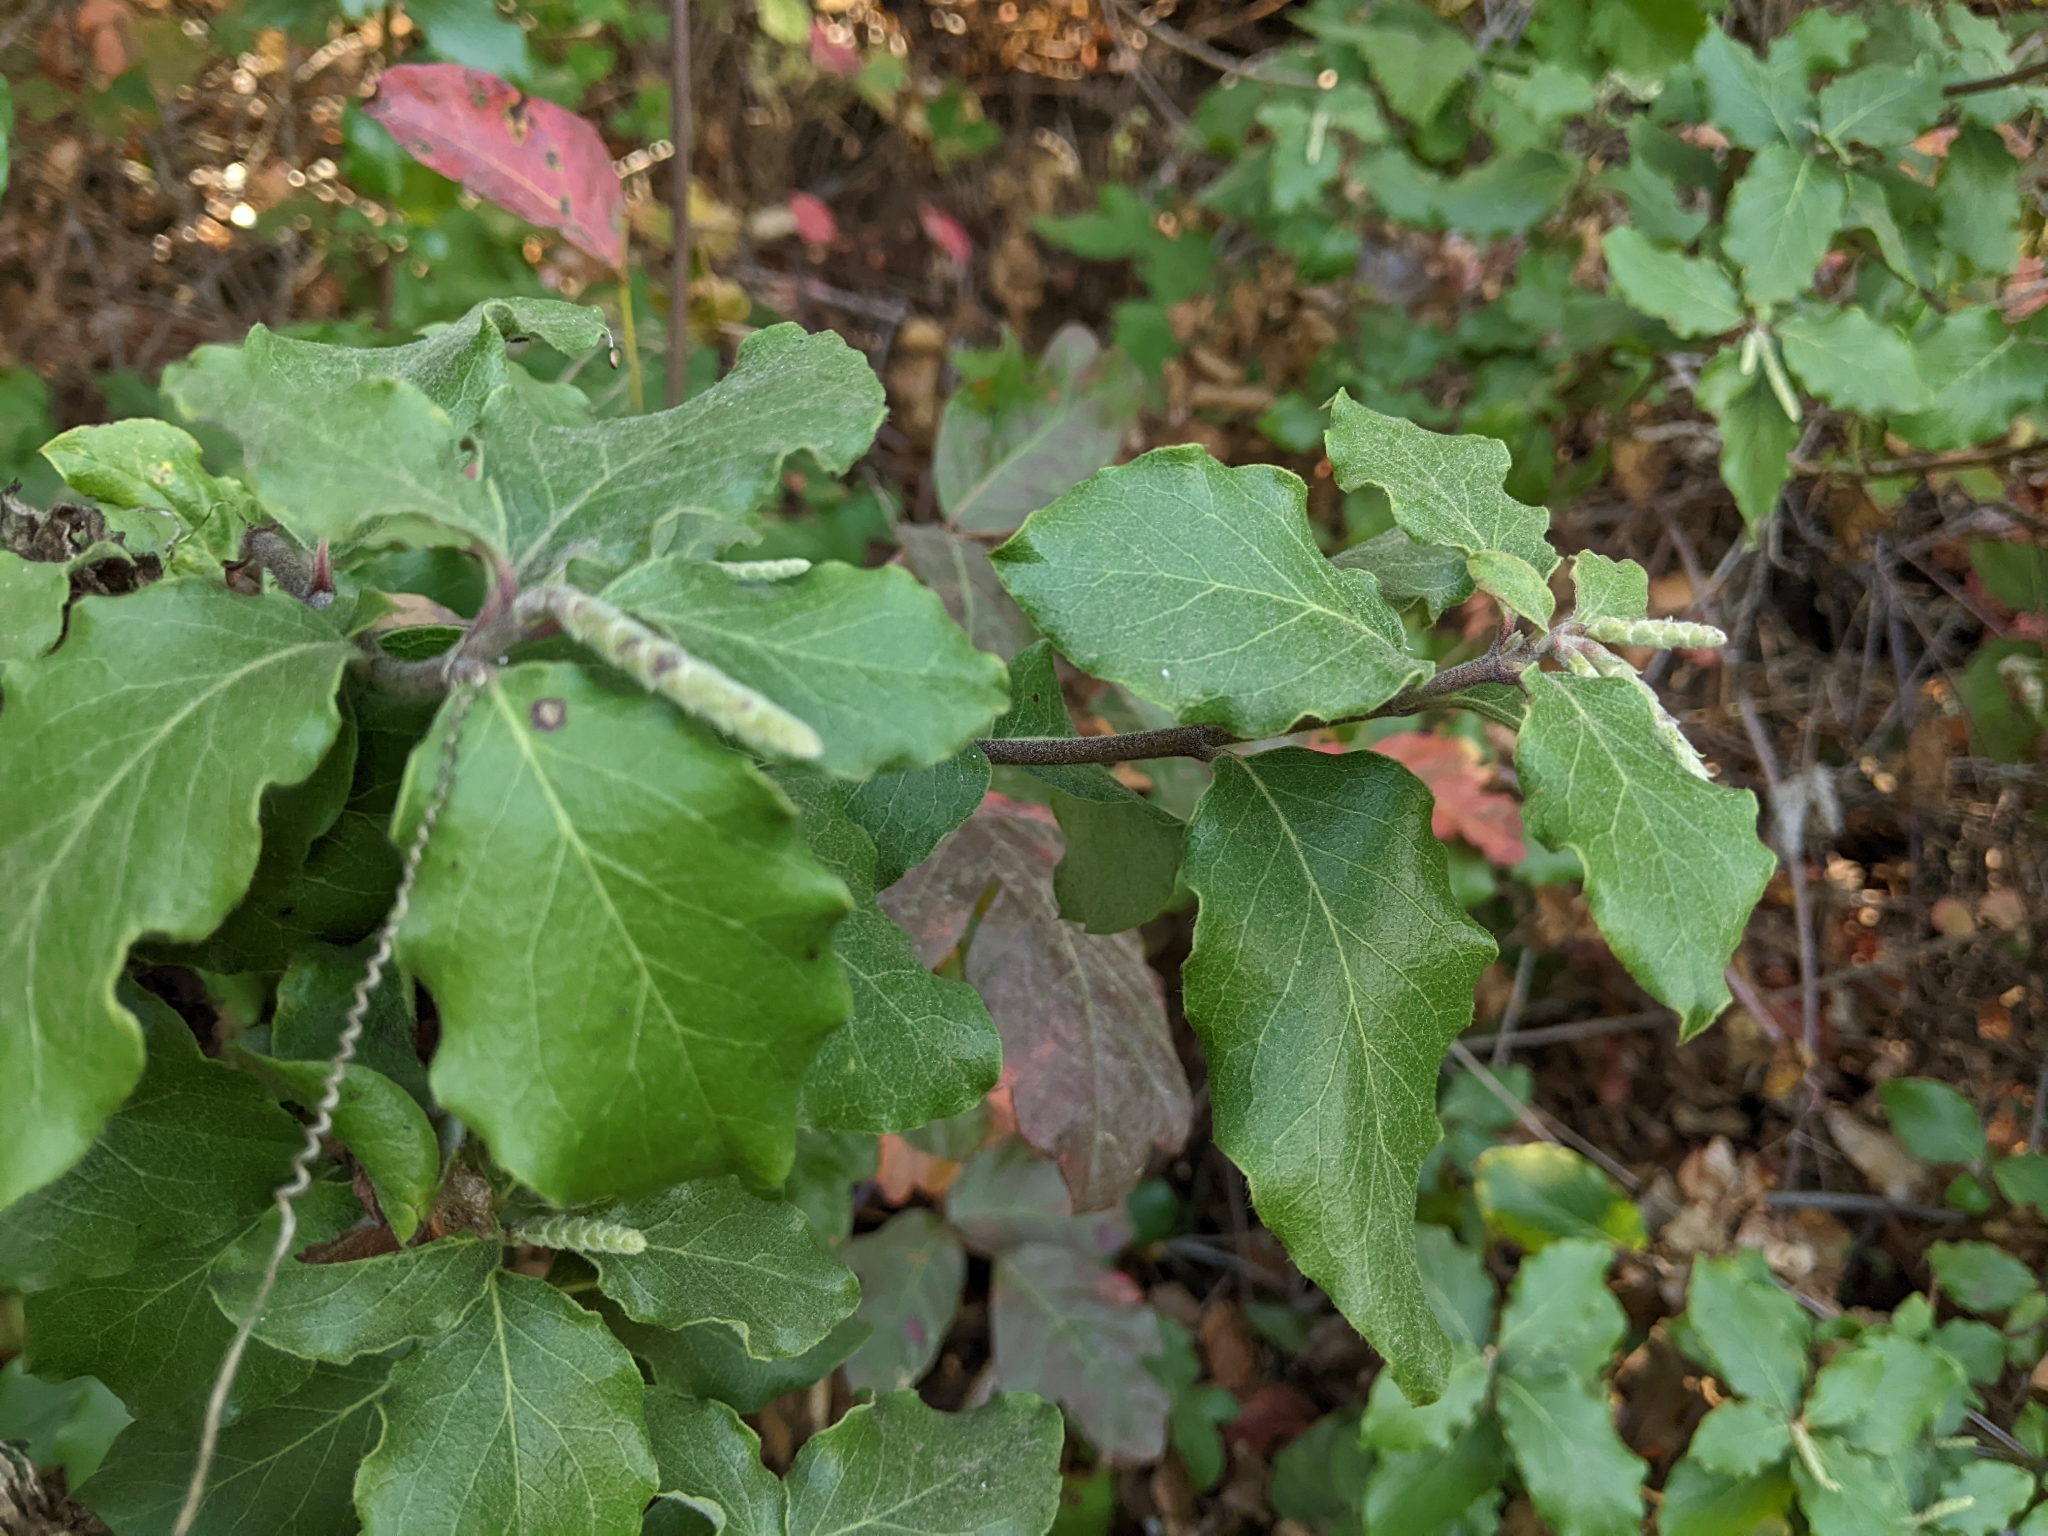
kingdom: Plantae
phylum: Tracheophyta
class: Magnoliopsida
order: Garryales
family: Garryaceae
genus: Garrya
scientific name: Garrya elliptica
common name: Silk-tassel
